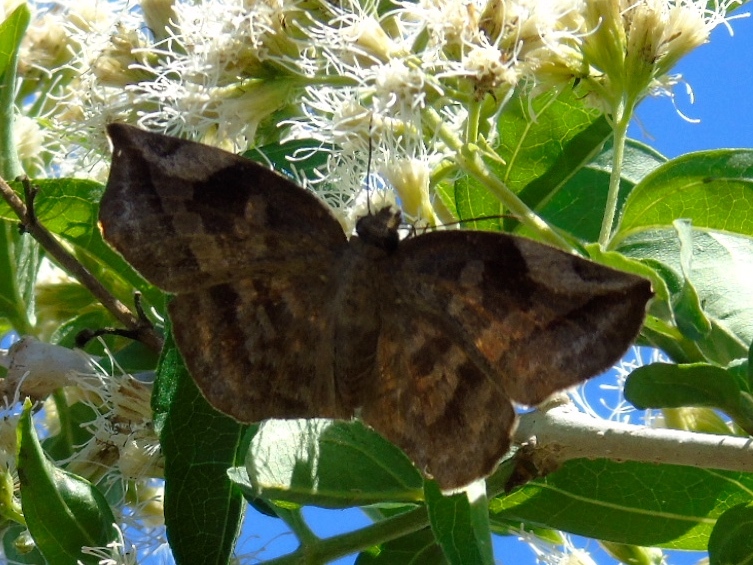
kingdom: Animalia
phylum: Arthropoda
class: Insecta
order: Lepidoptera
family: Hesperiidae
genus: Achlyodes
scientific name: Achlyodes thraso
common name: Sickle-winged skipper
